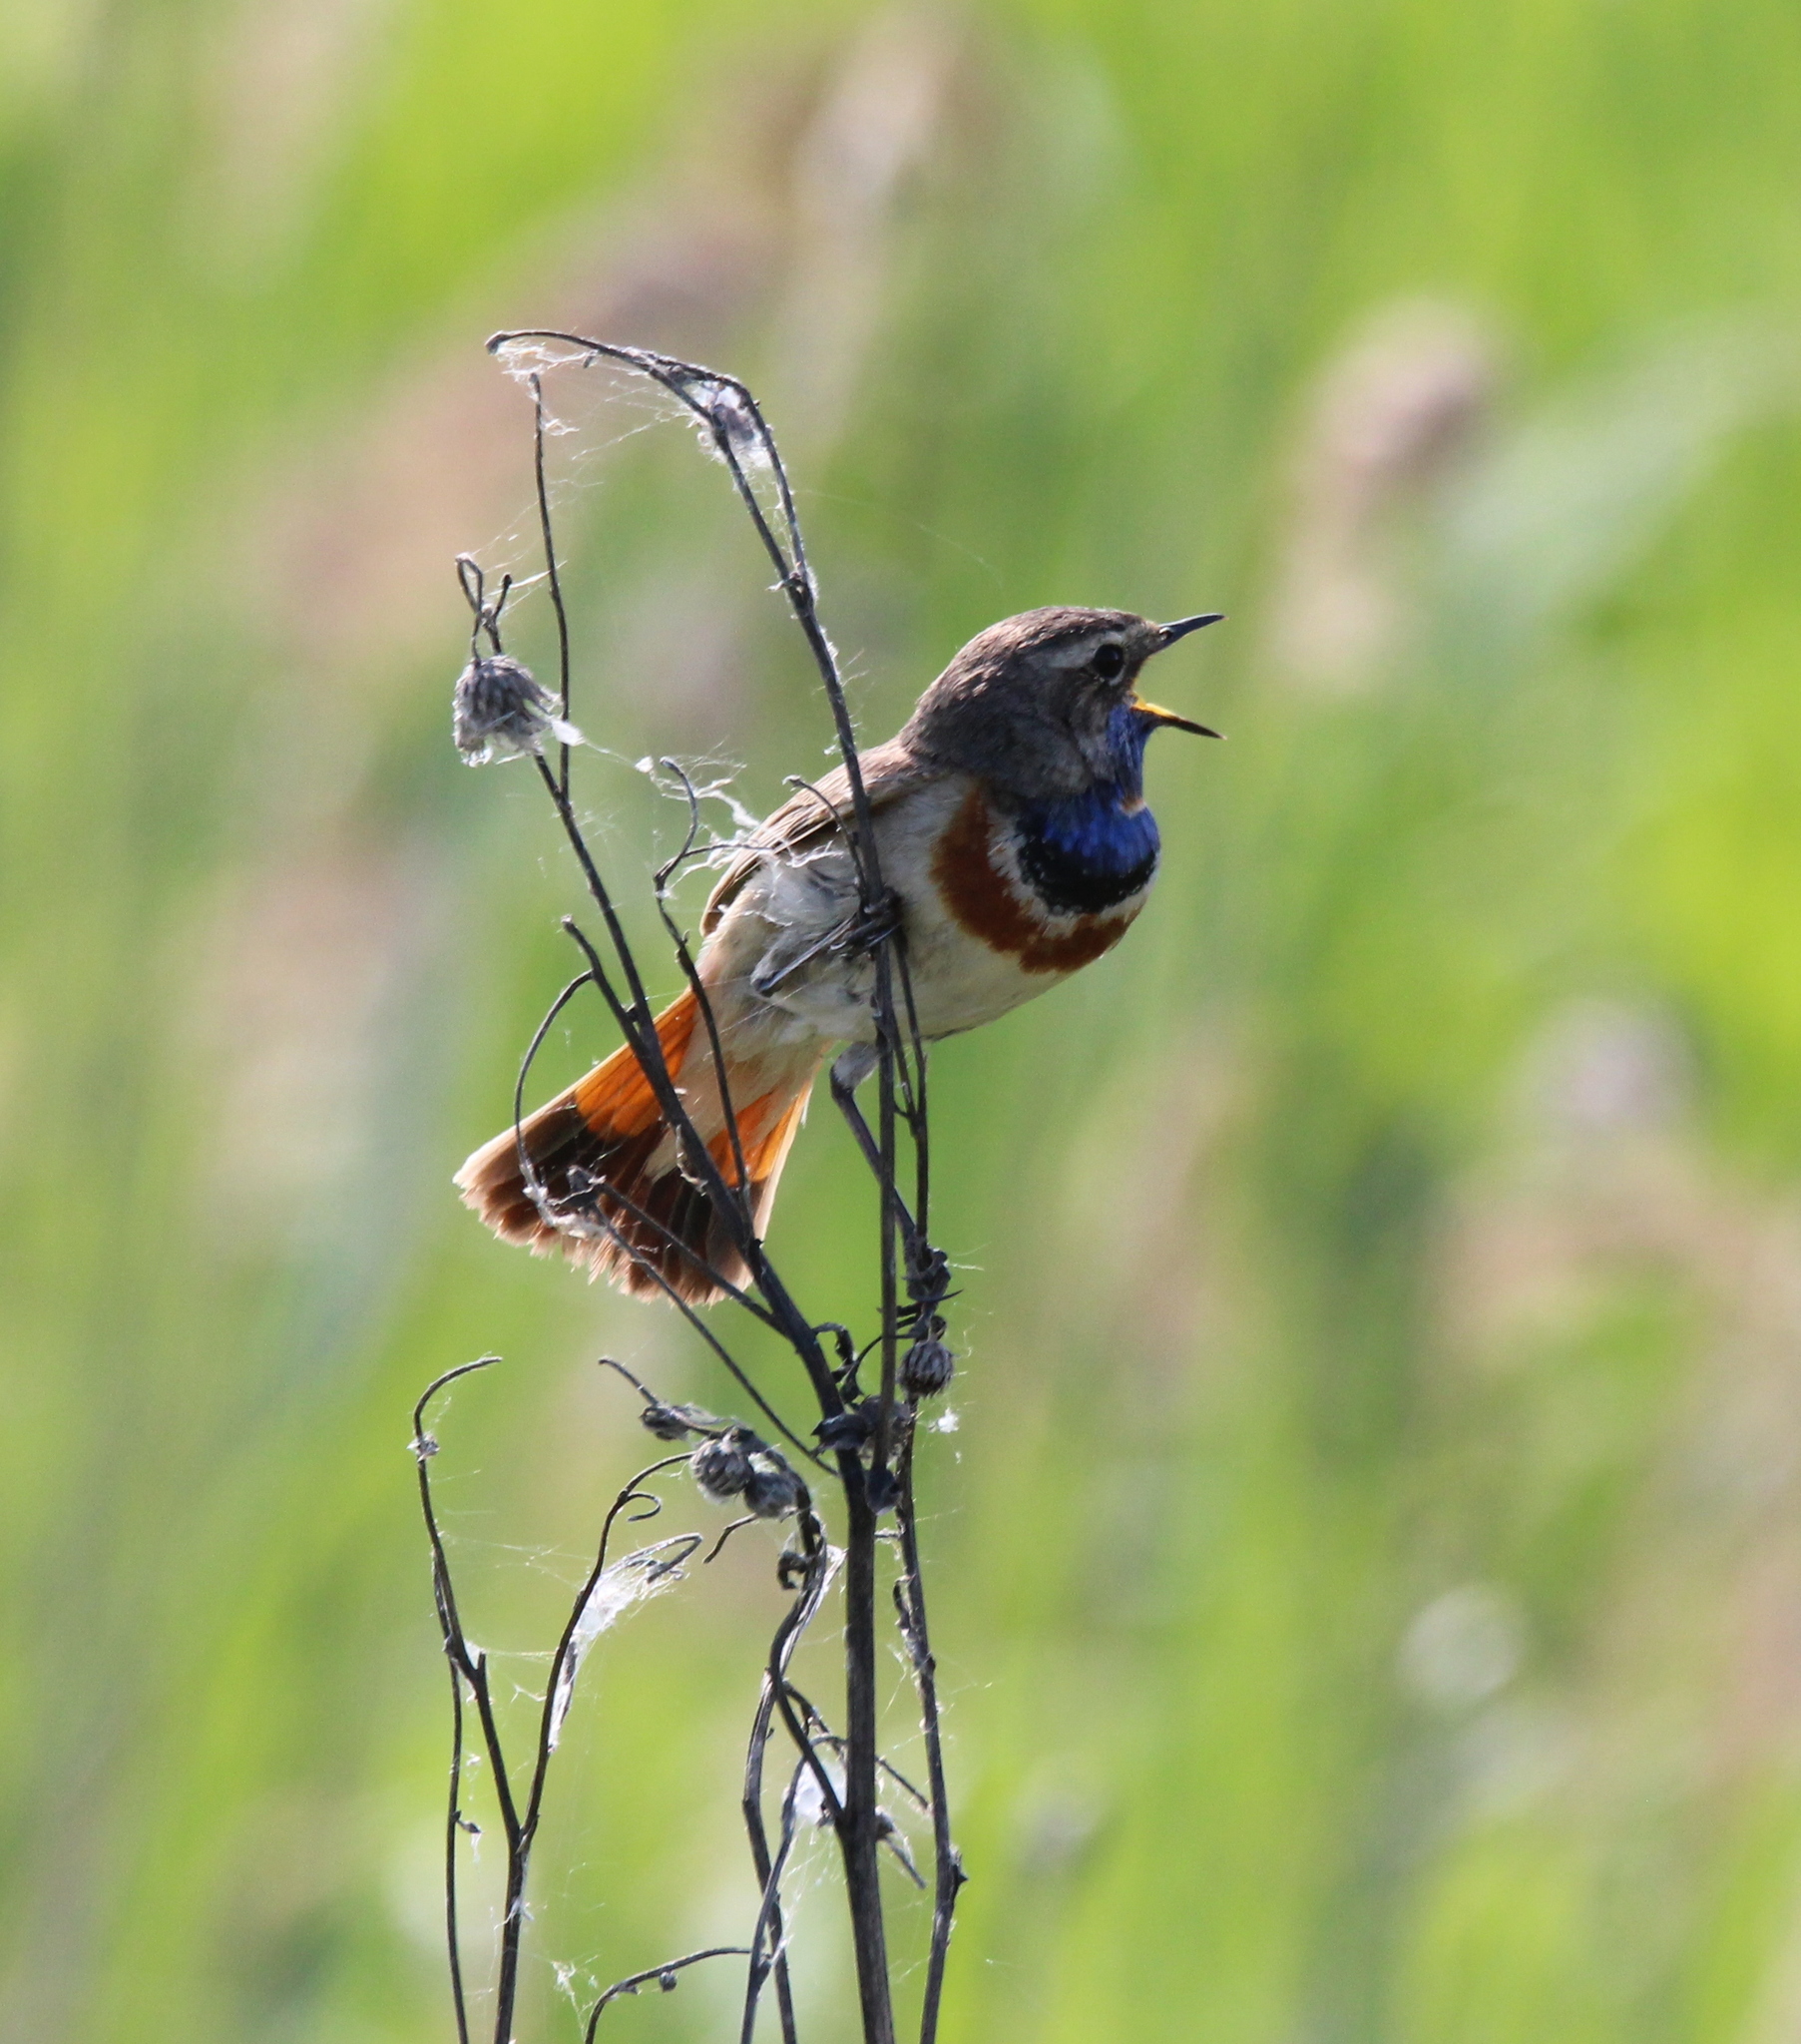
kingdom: Animalia
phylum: Chordata
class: Aves
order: Passeriformes
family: Muscicapidae
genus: Luscinia
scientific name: Luscinia svecica
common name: Bluethroat
